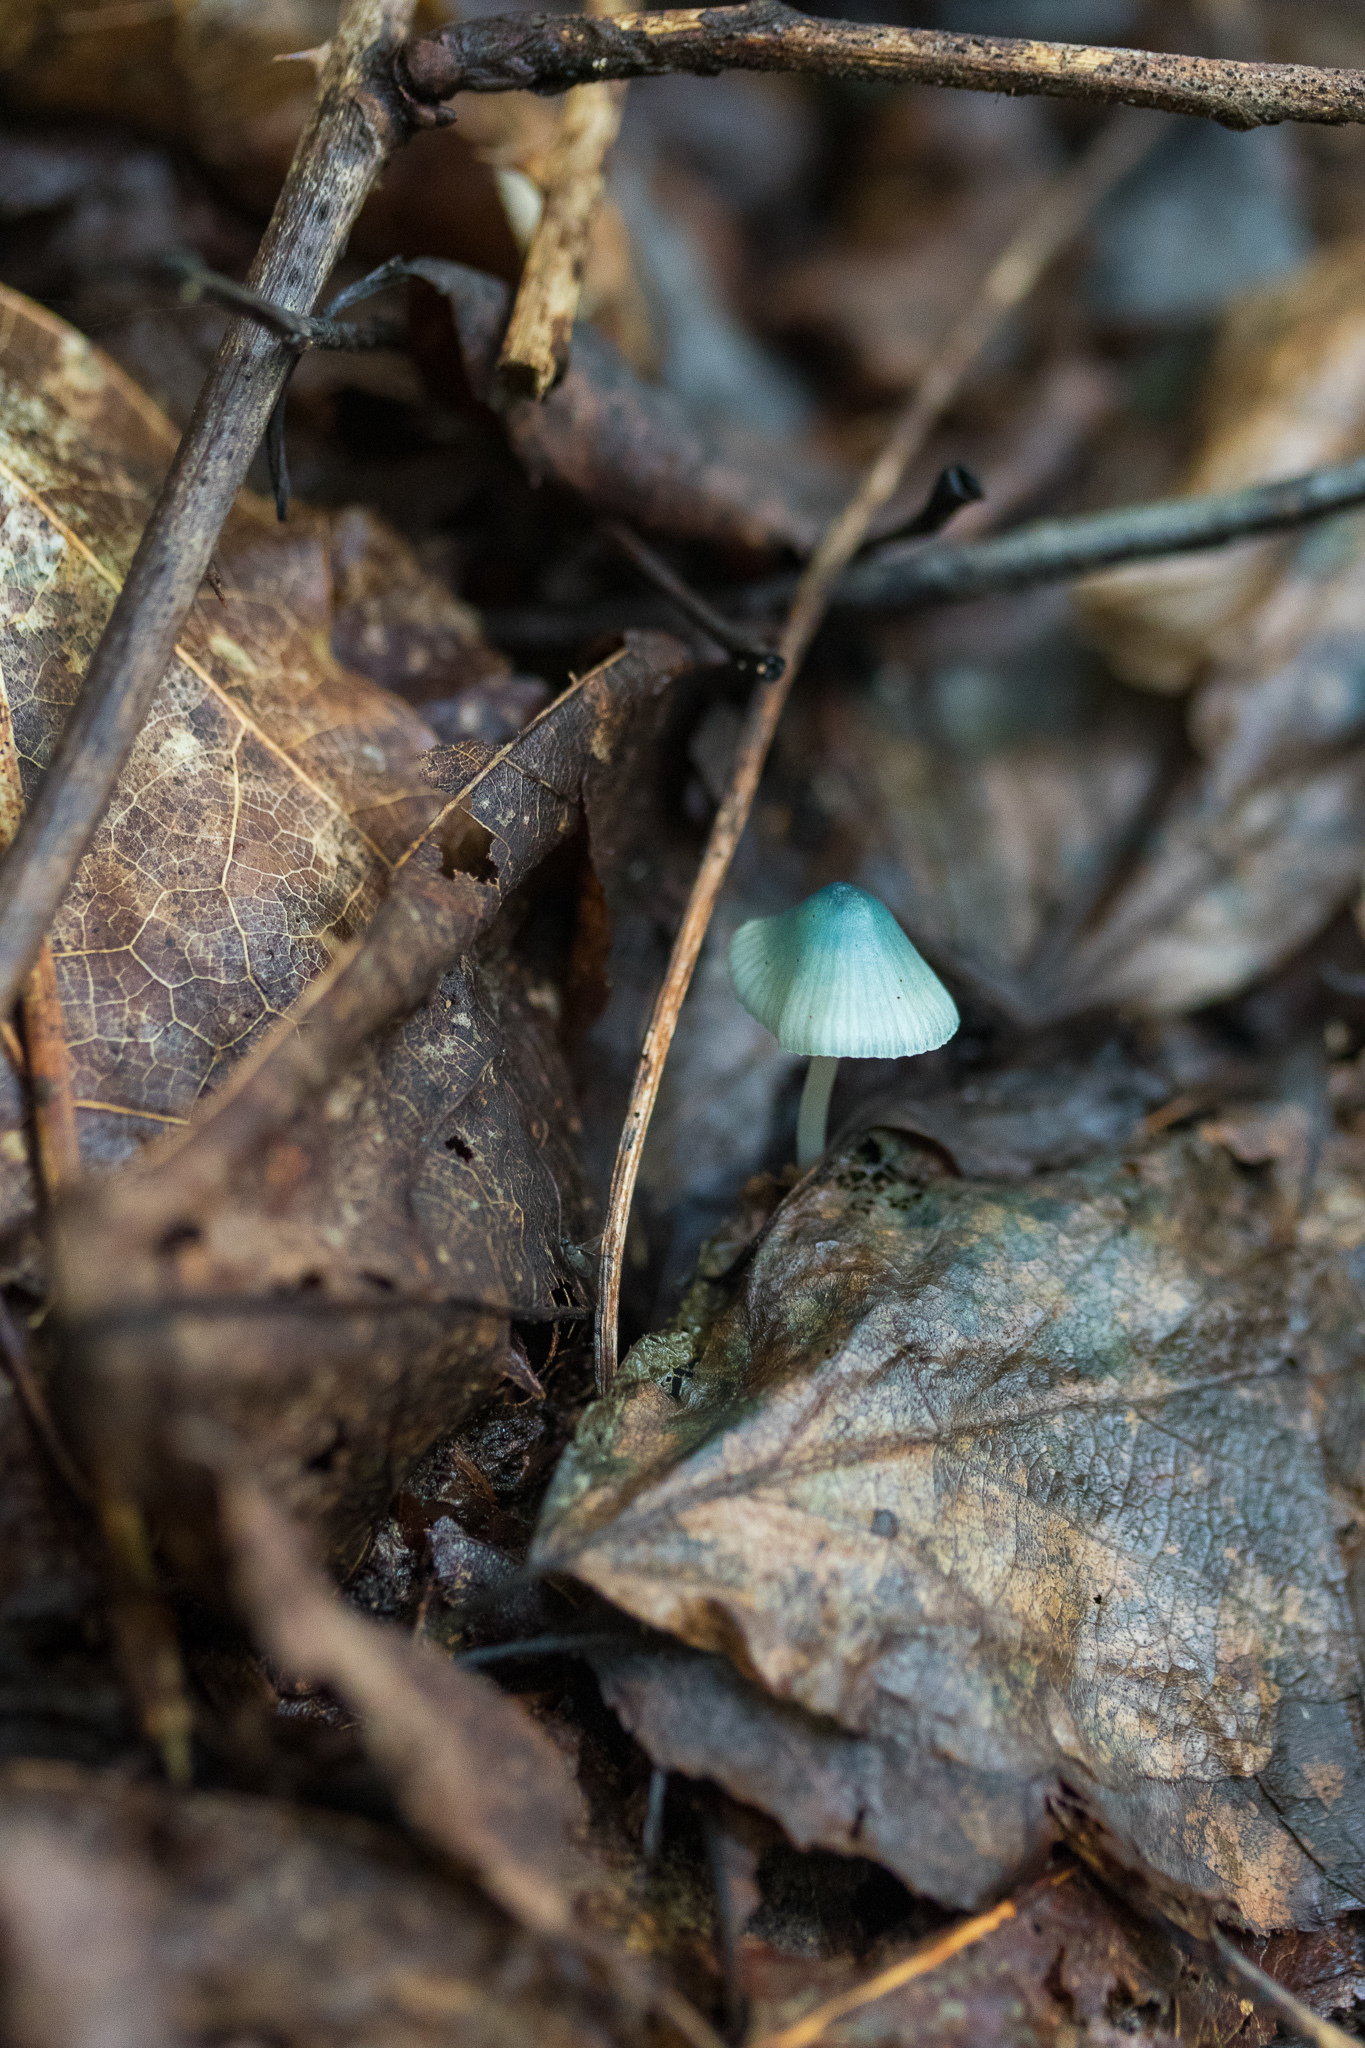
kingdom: Fungi
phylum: Basidiomycota
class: Agaricomycetes
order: Agaricales
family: Mycenaceae
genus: Mycena
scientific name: Mycena subcaerulea
